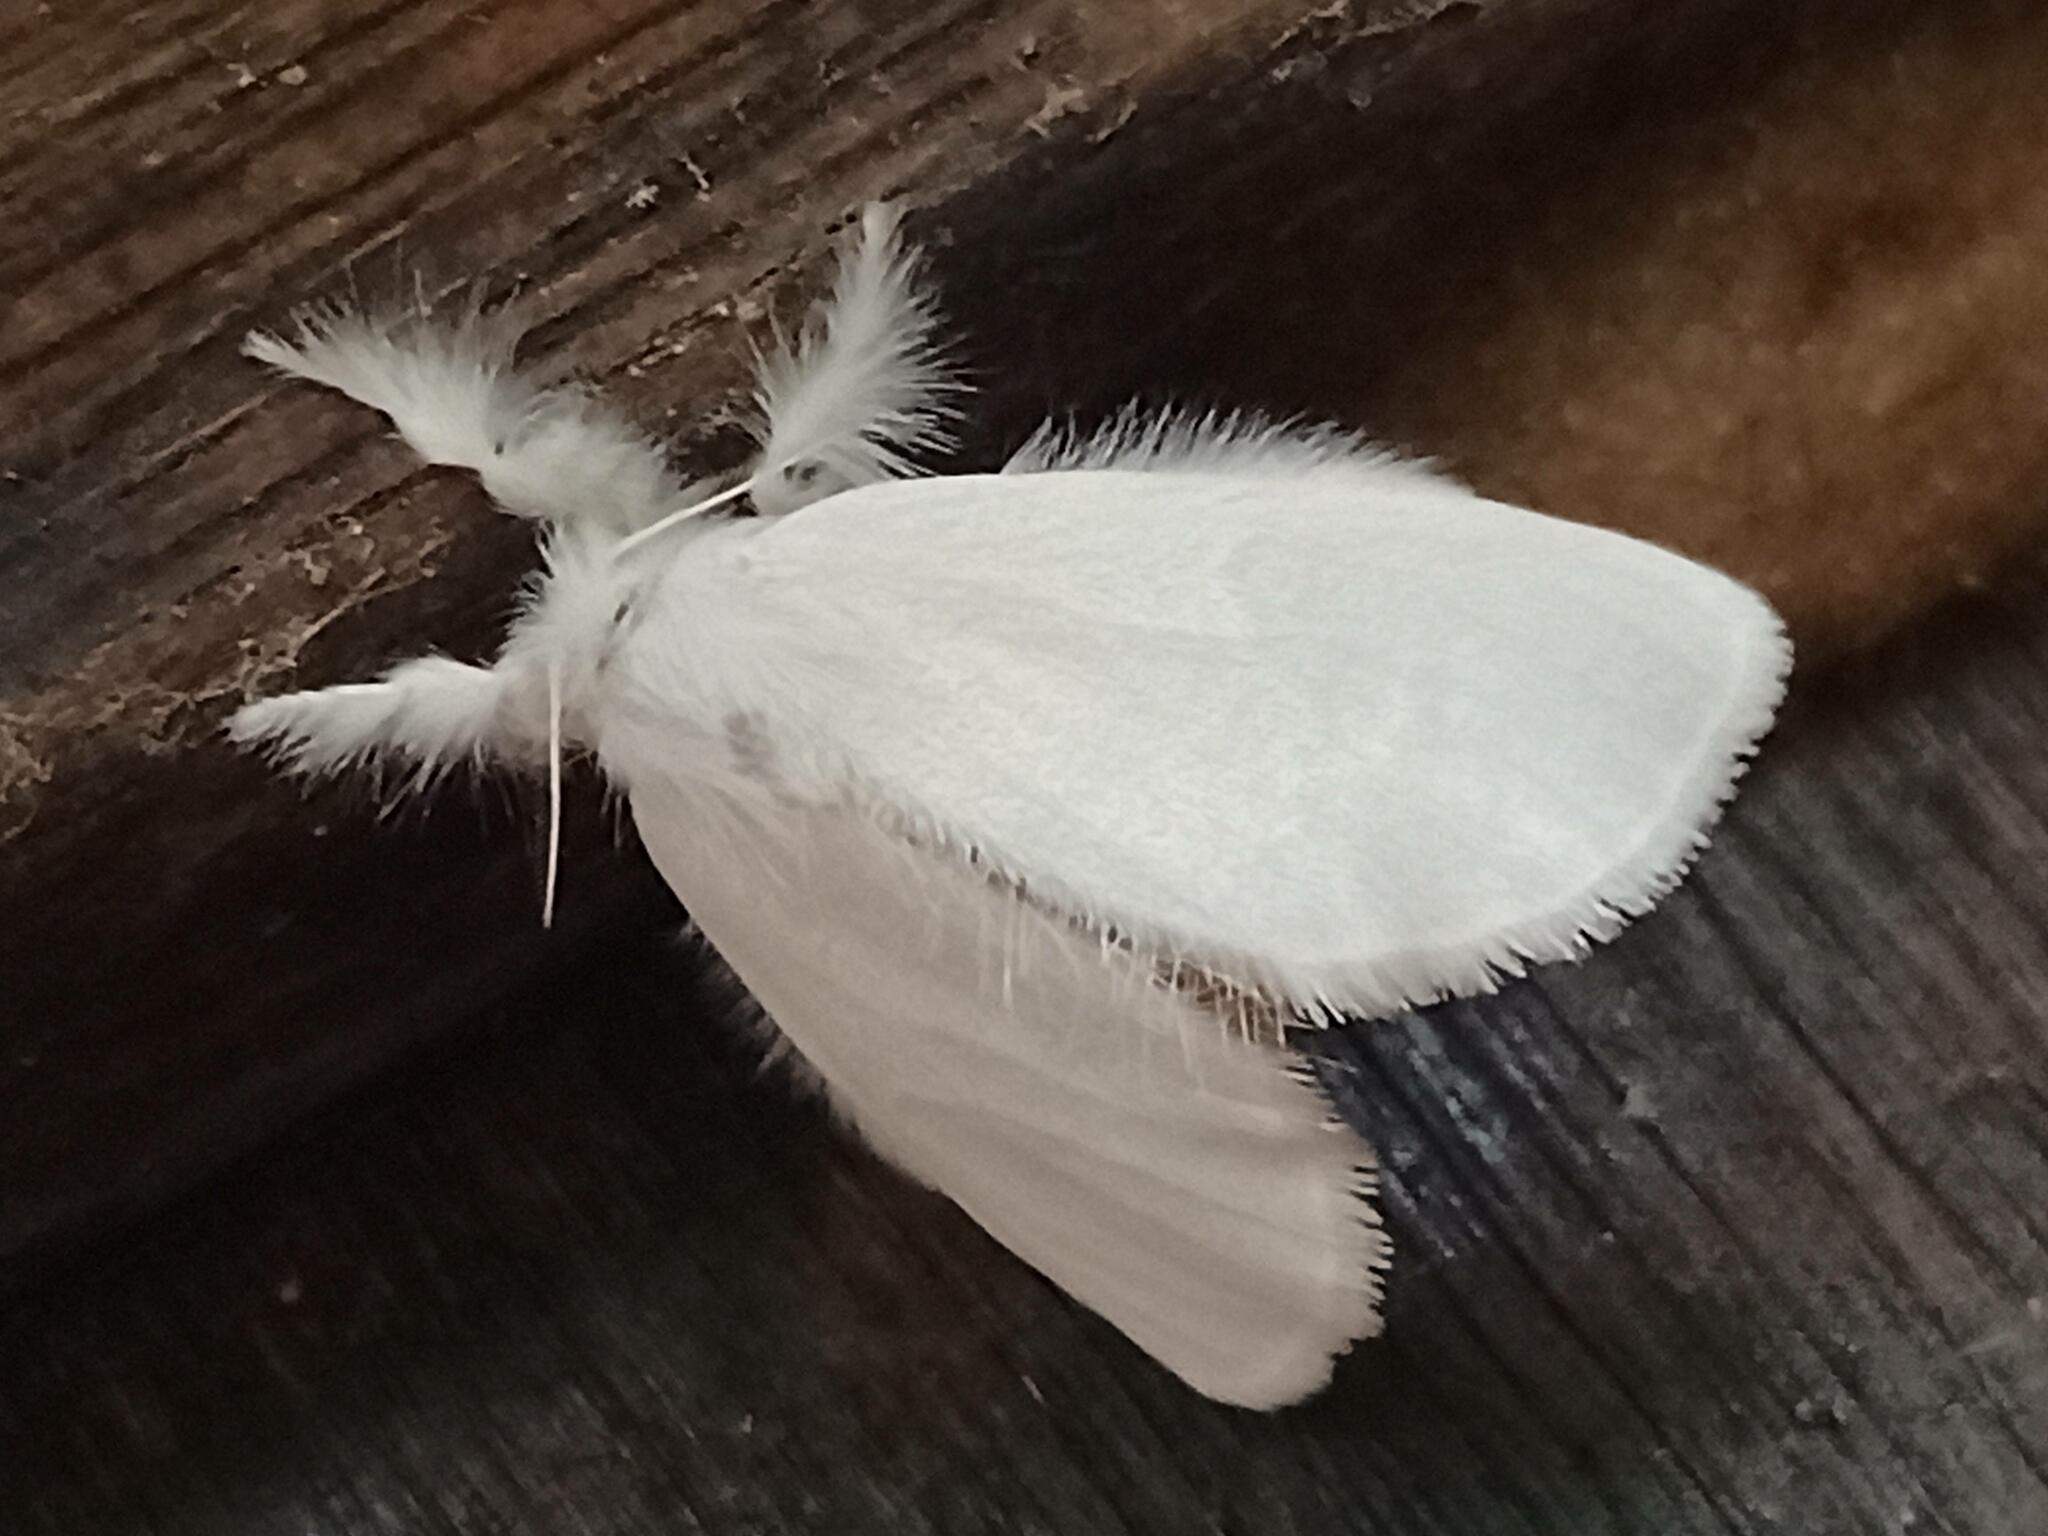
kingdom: Animalia
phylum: Arthropoda
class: Insecta
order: Lepidoptera
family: Erebidae
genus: Sphrageidus
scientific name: Sphrageidus similis
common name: Yellow-tail
